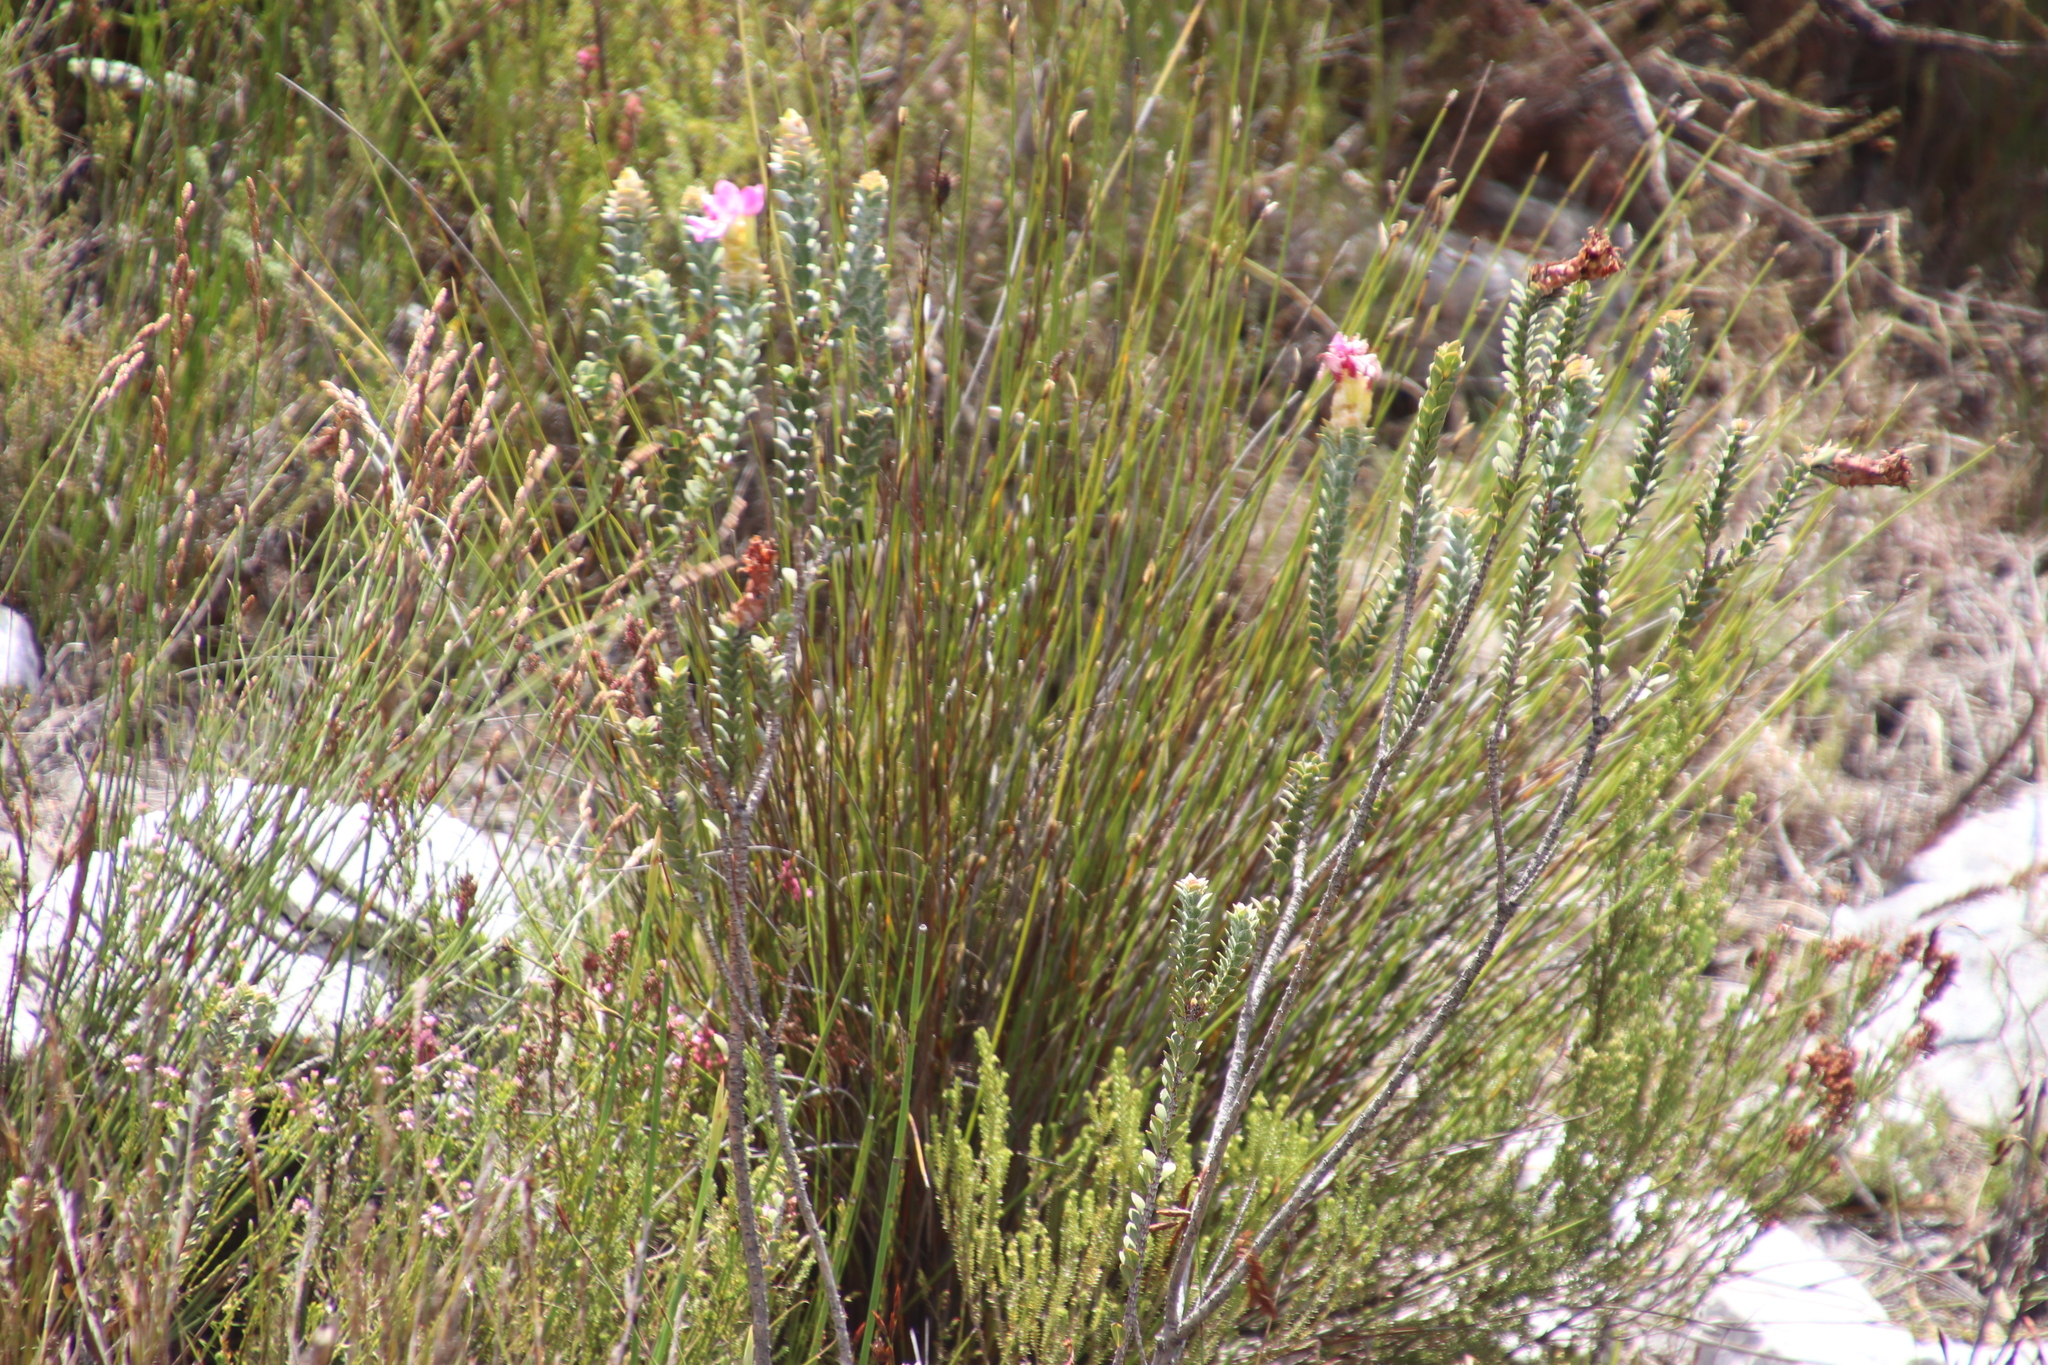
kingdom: Plantae
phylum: Tracheophyta
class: Magnoliopsida
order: Myrtales
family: Penaeaceae
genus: Saltera
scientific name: Saltera sarcocolla
